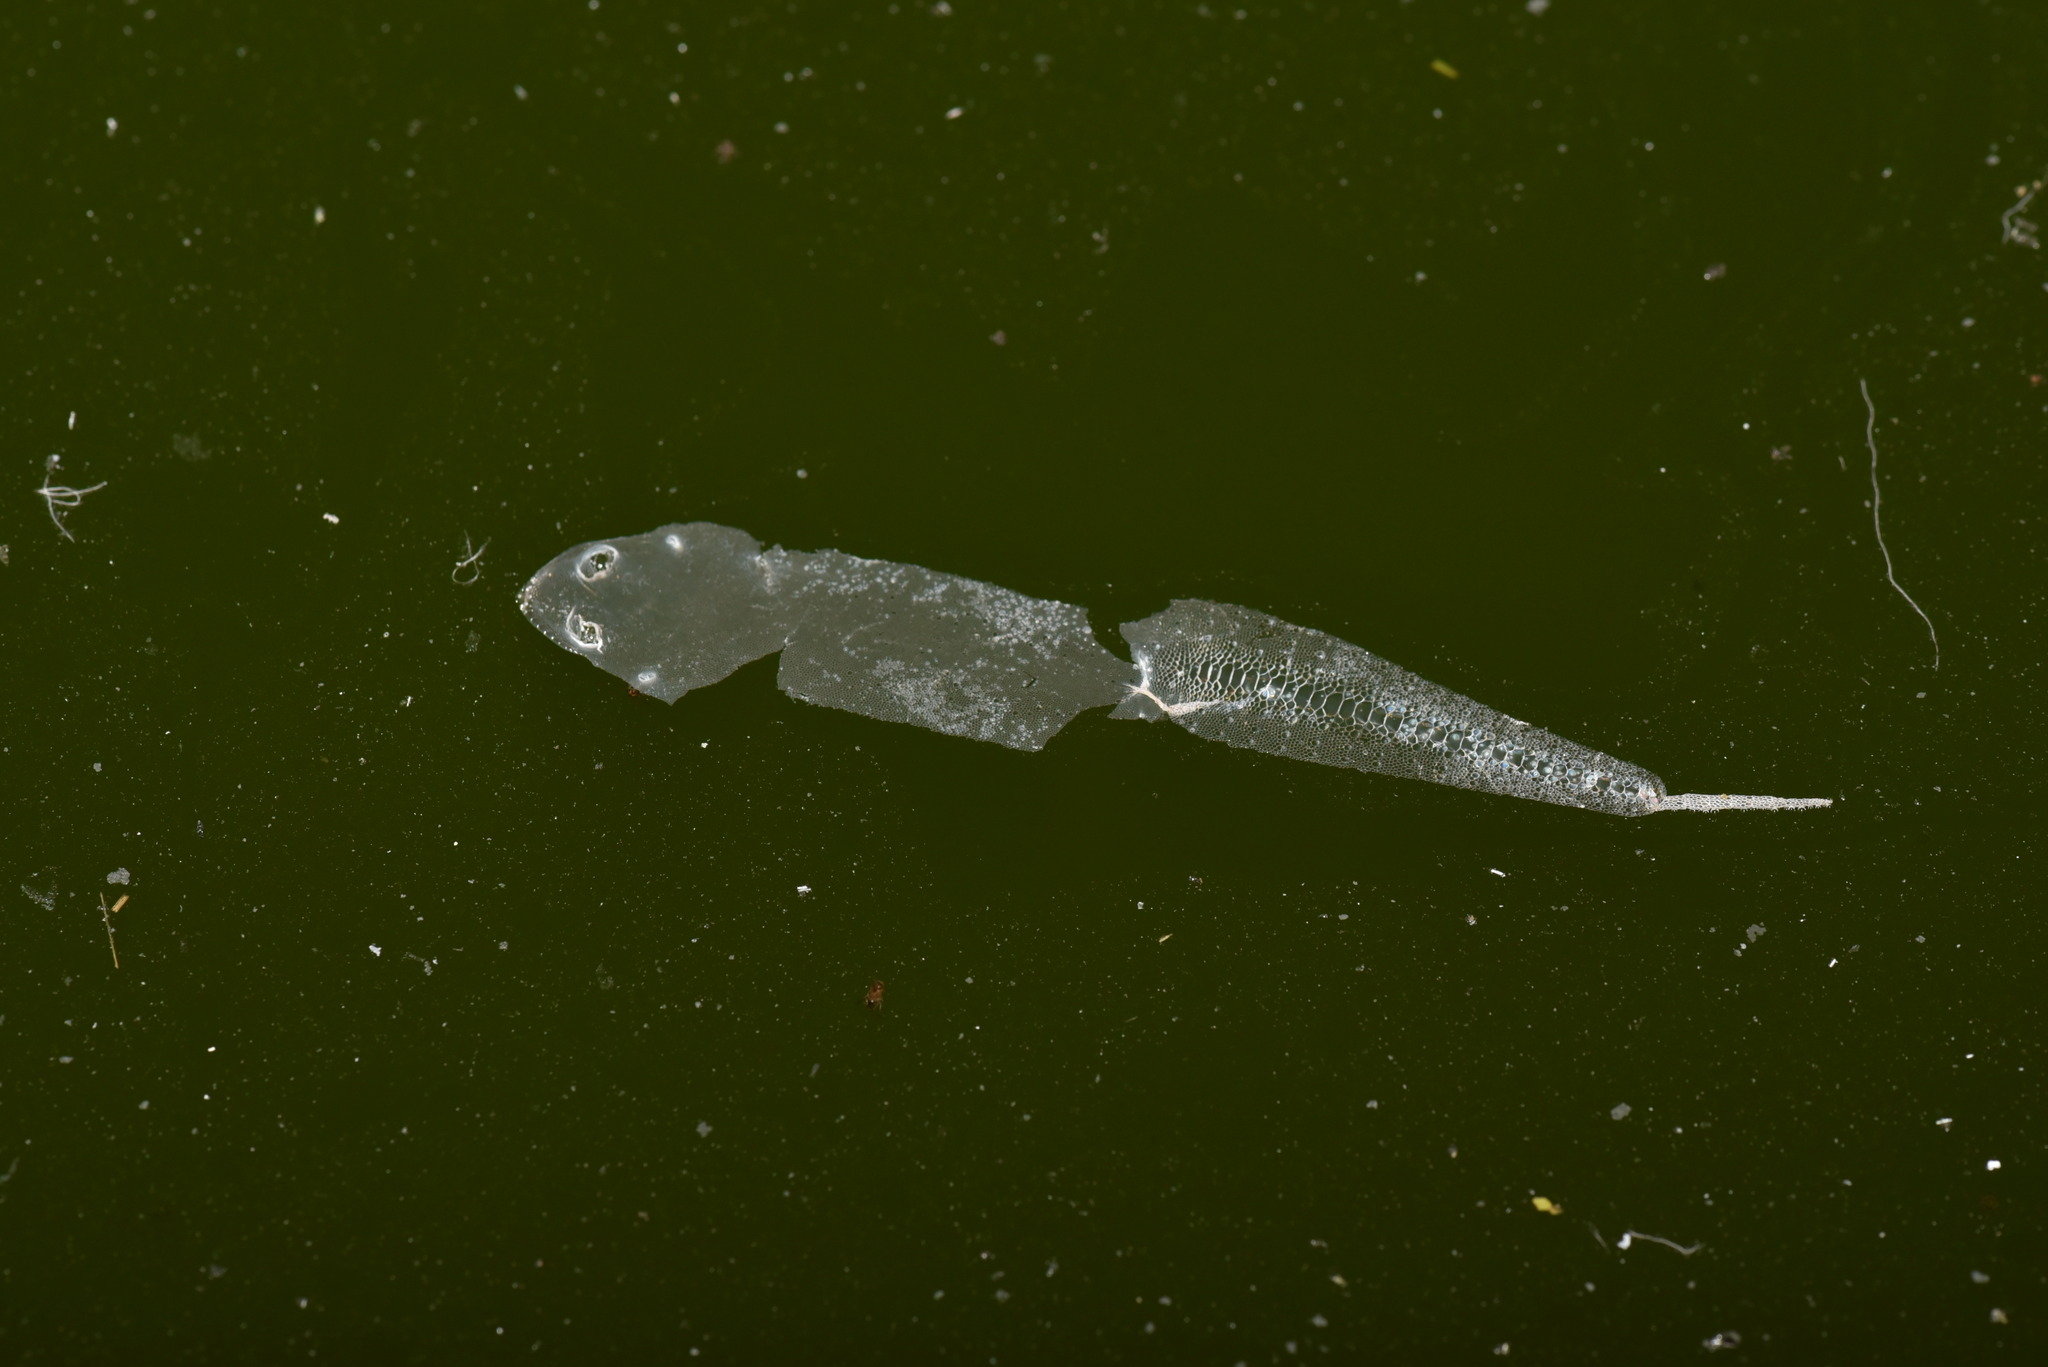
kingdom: Animalia
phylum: Chordata
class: Squamata
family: Gekkonidae
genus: Hemidactylus
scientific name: Hemidactylus frenatus
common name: Common house gecko
